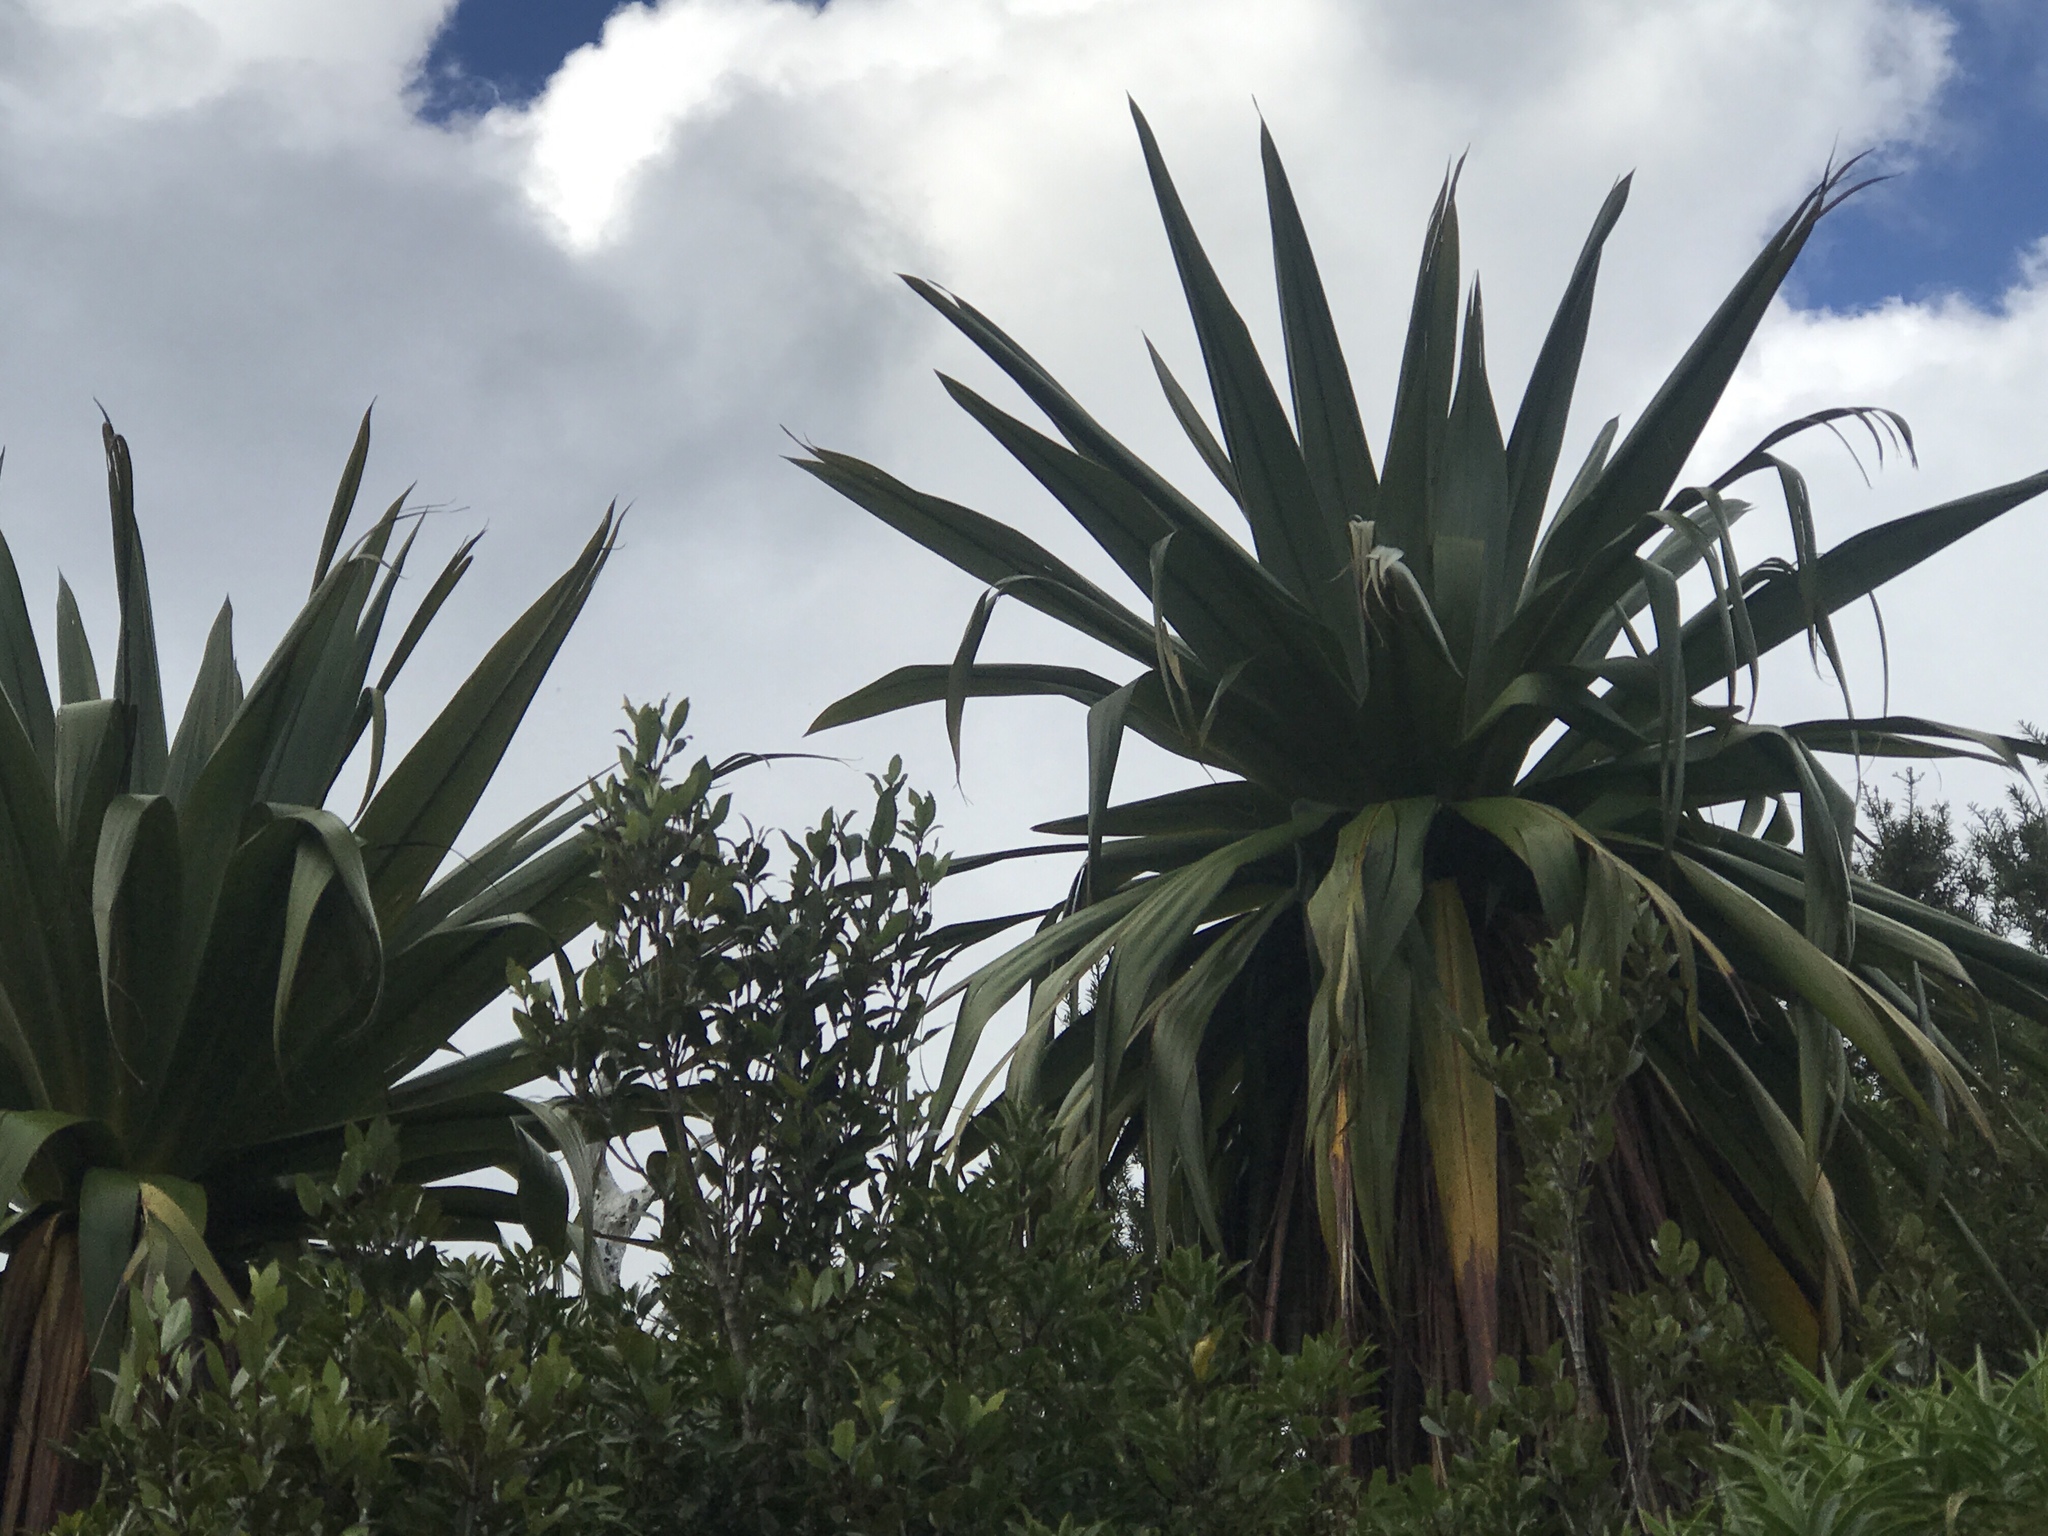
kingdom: Plantae
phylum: Tracheophyta
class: Liliopsida
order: Asparagales
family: Asparagaceae
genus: Cordyline
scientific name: Cordyline indivisa
